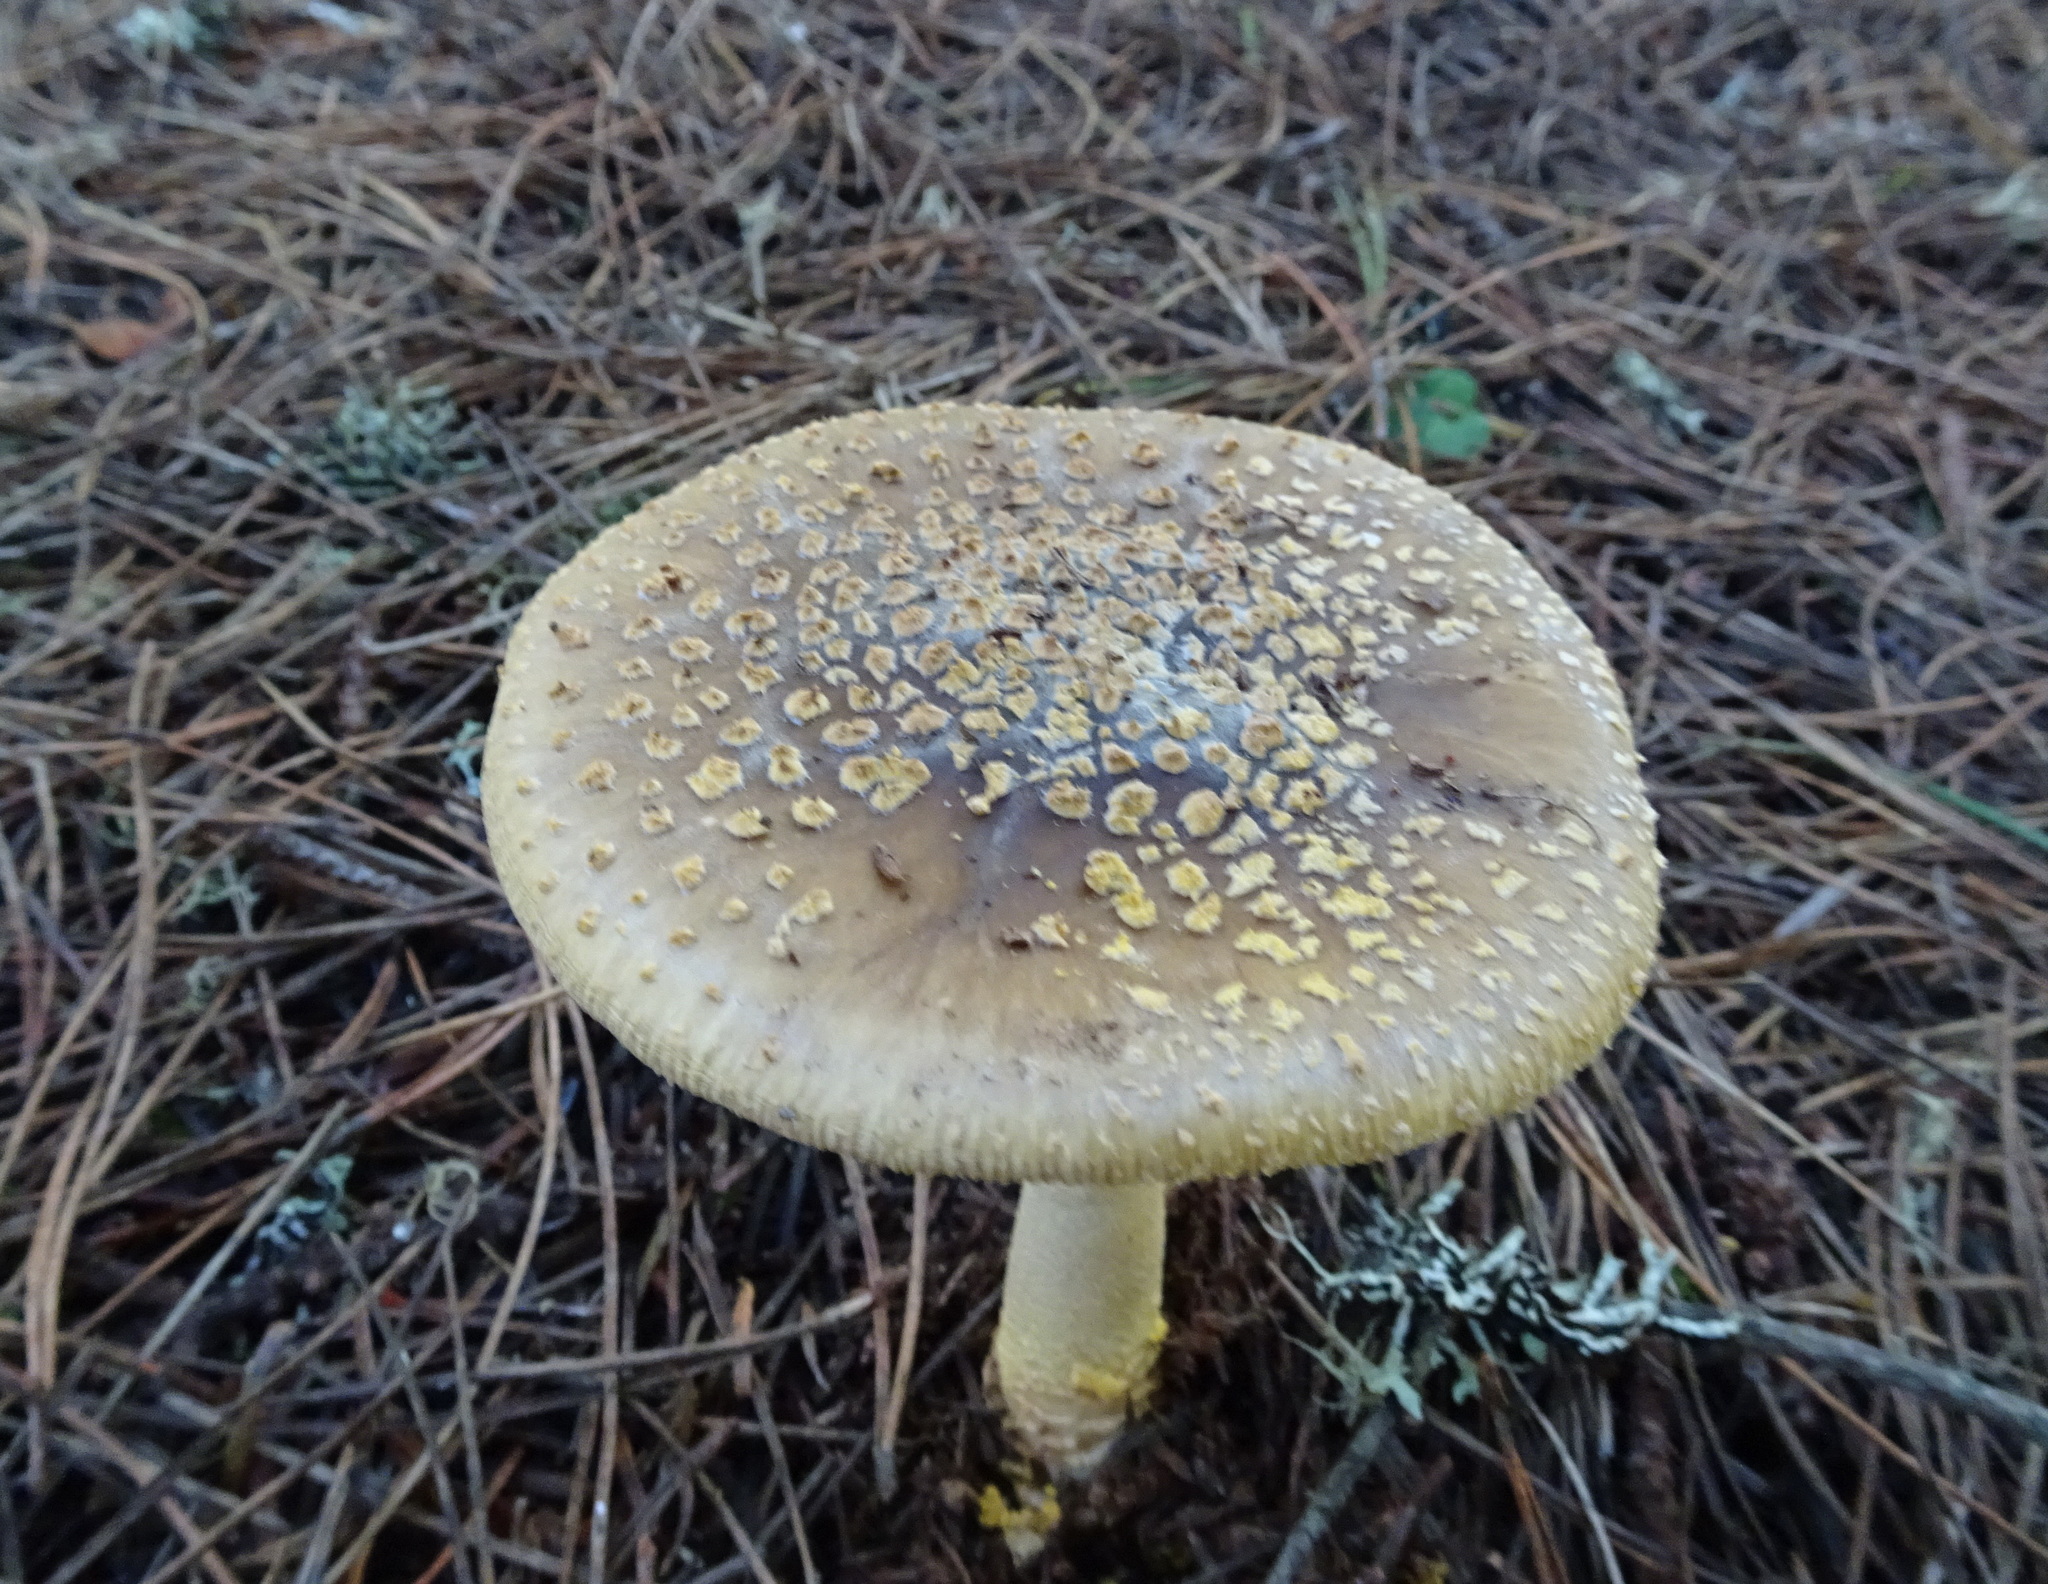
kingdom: Fungi
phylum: Basidiomycota
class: Agaricomycetes
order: Agaricales
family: Amanitaceae
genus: Amanita
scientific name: Amanita augusta
